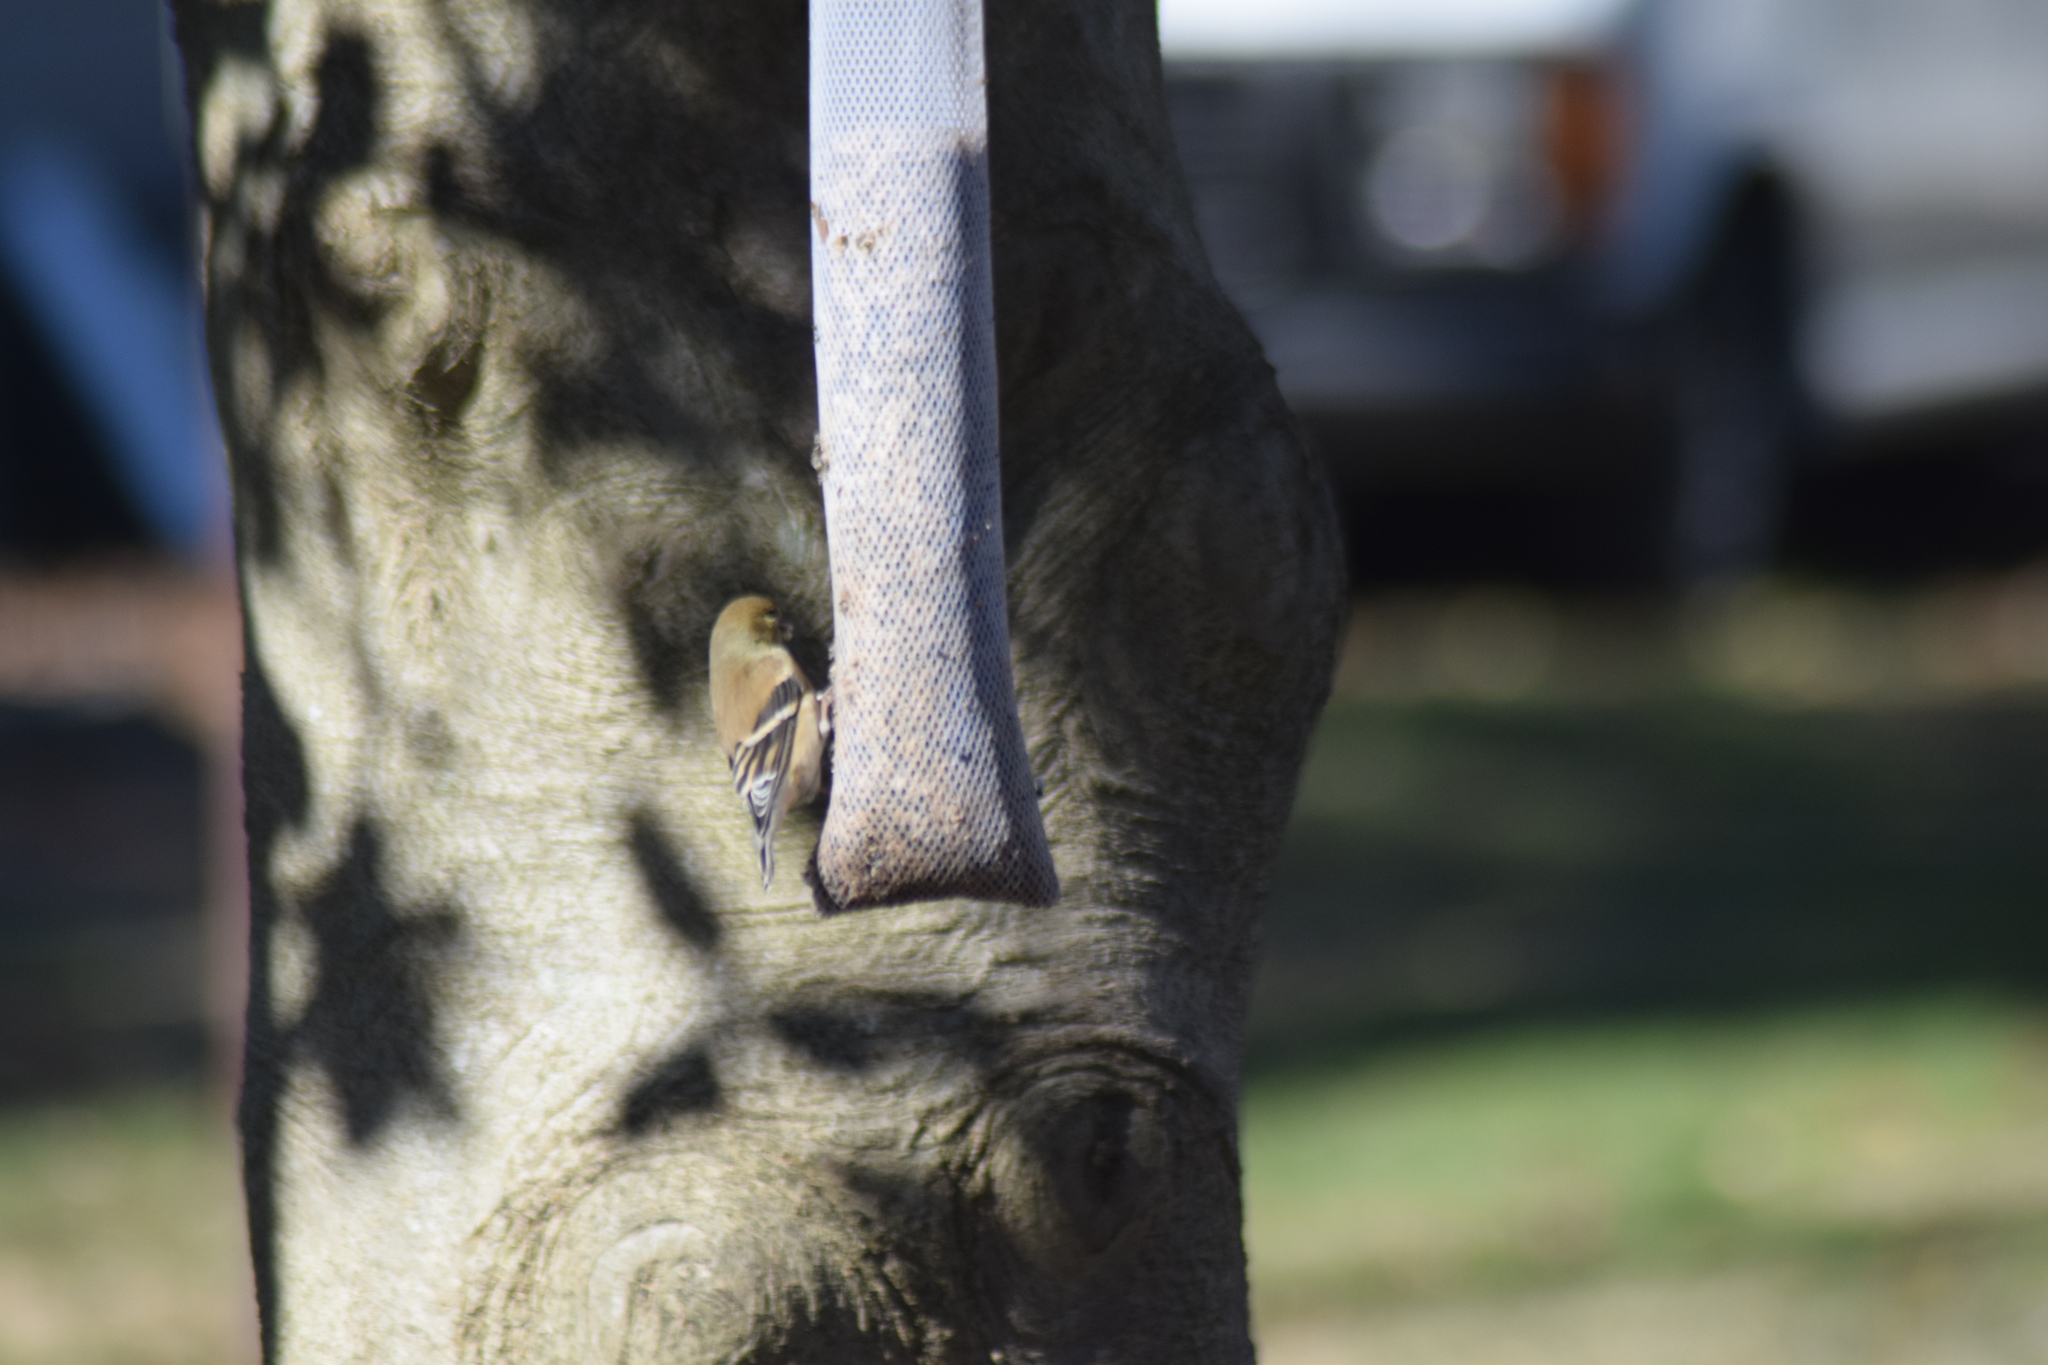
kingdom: Animalia
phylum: Chordata
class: Aves
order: Passeriformes
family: Fringillidae
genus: Spinus
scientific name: Spinus tristis
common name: American goldfinch
